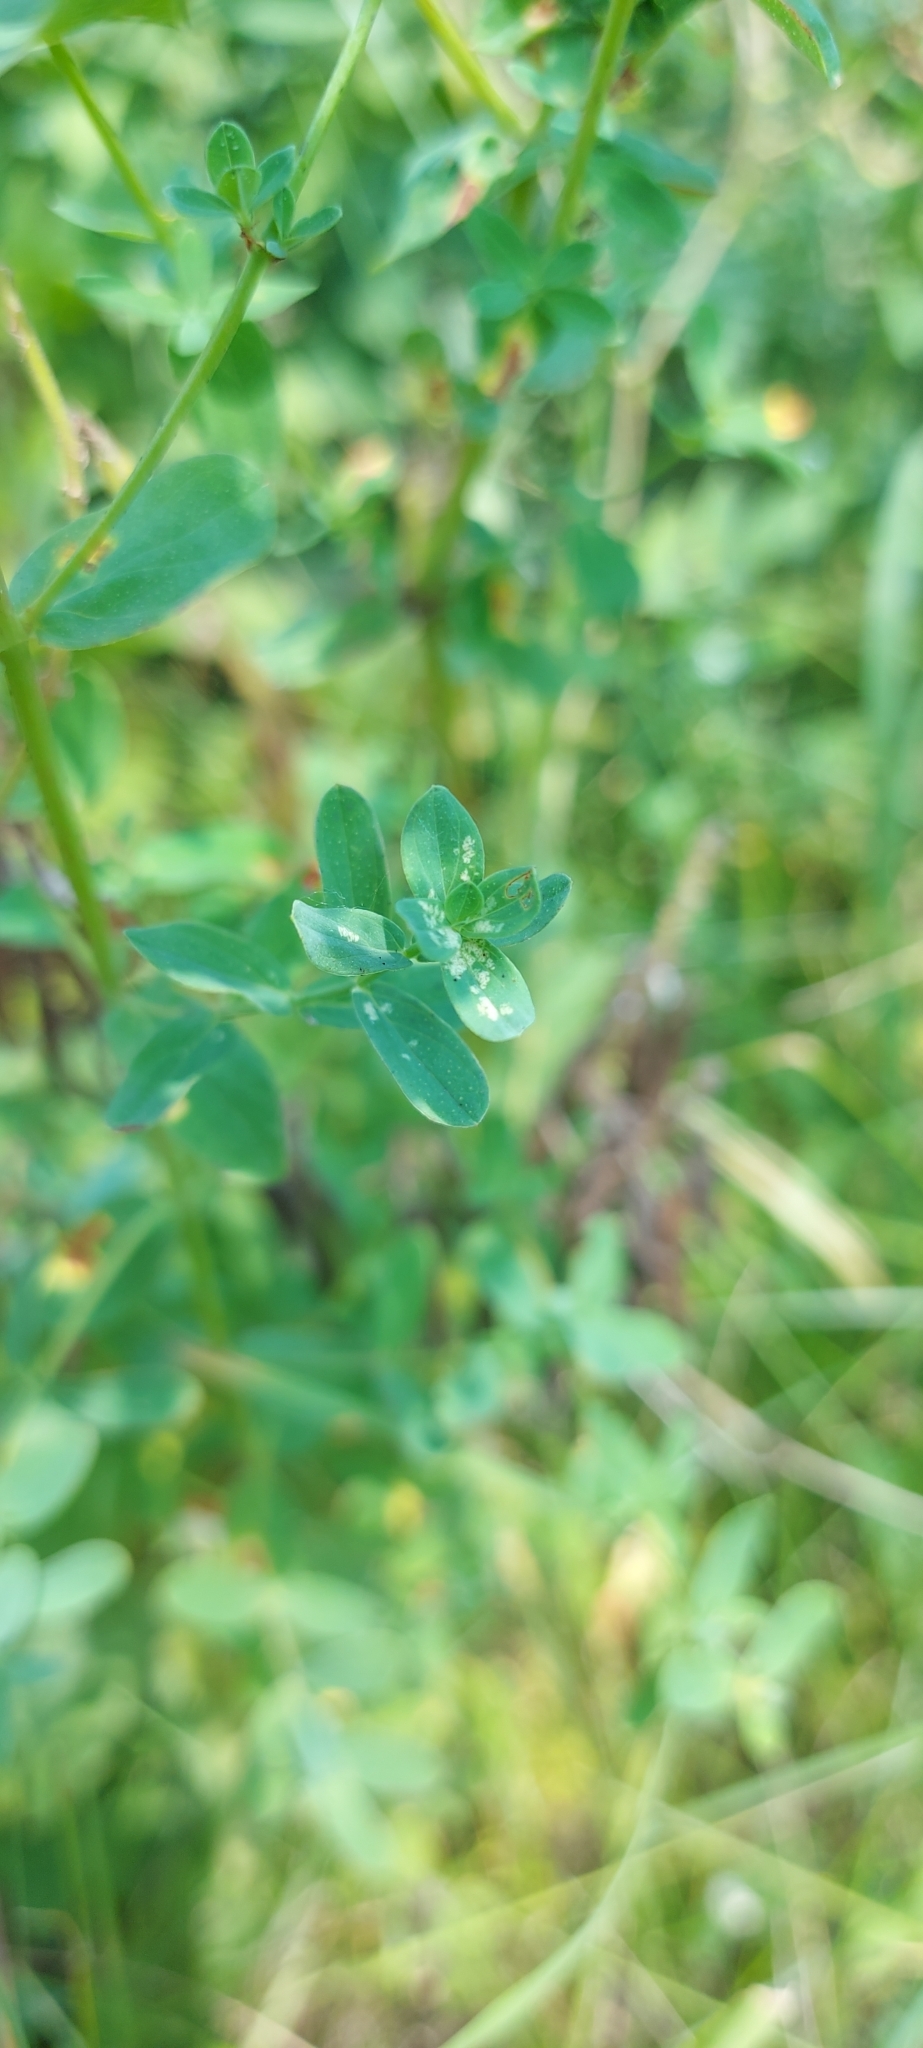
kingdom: Plantae
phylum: Tracheophyta
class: Magnoliopsida
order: Malpighiales
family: Hypericaceae
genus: Hypericum
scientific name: Hypericum perforatum
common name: Common st. johnswort
